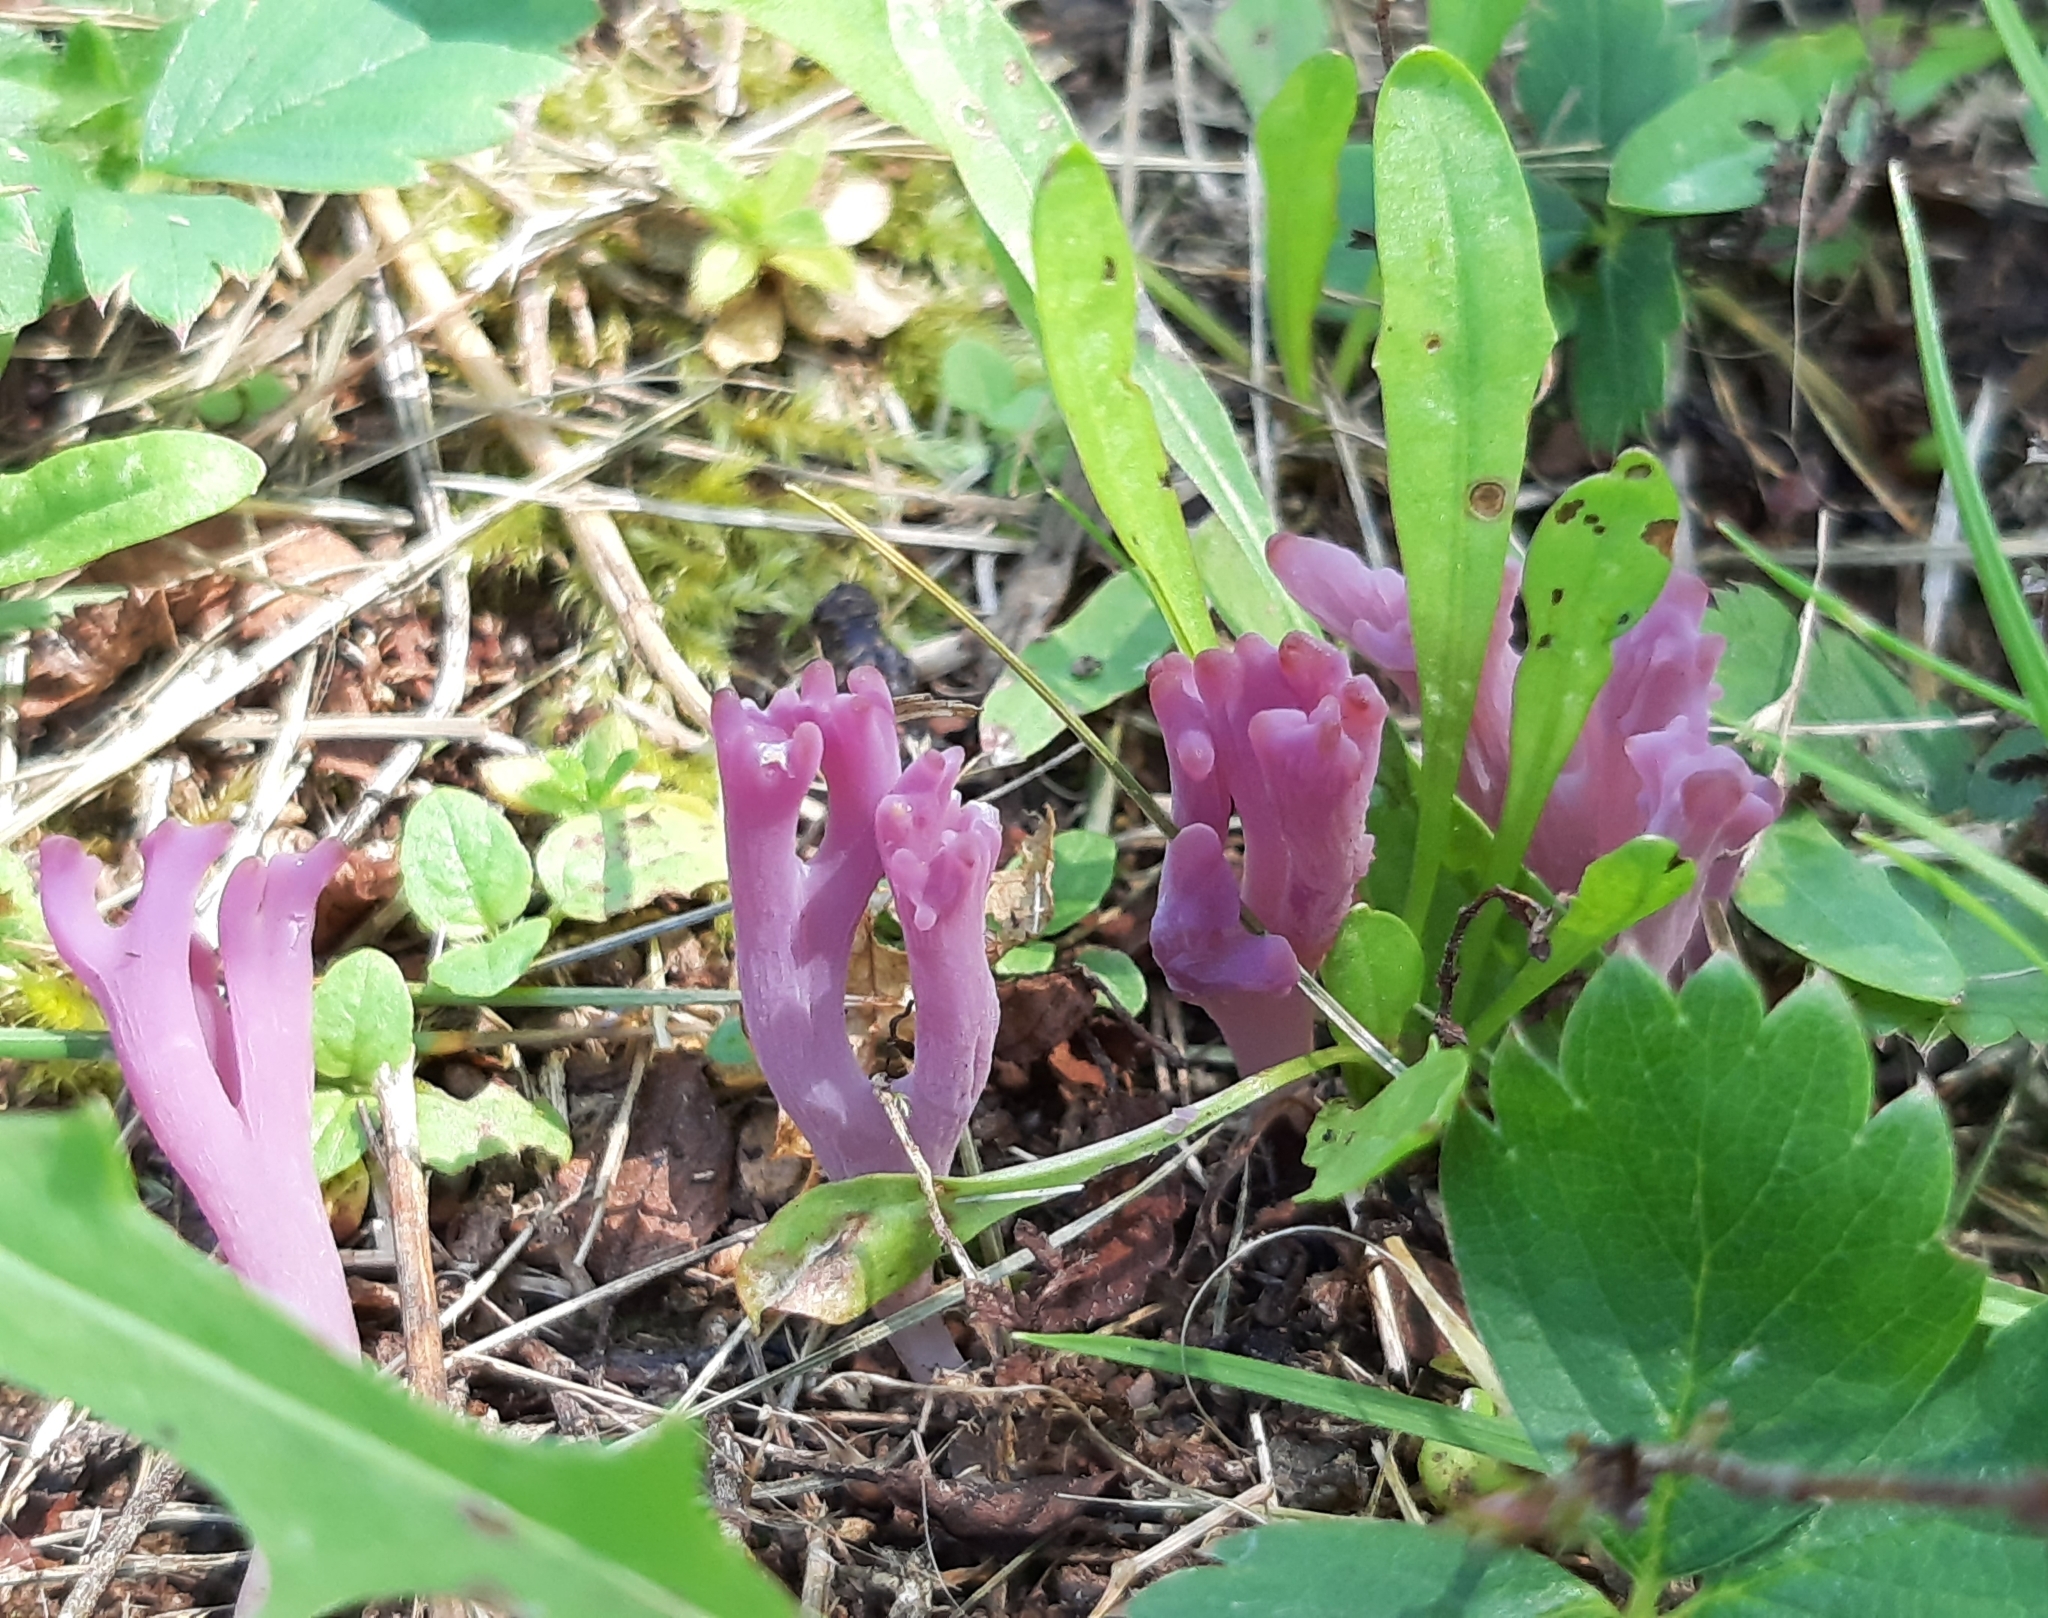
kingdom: Fungi
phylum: Basidiomycota
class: Agaricomycetes
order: Agaricales
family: Clavariaceae
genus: Clavaria
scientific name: Clavaria zollingeri
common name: Violet coral
